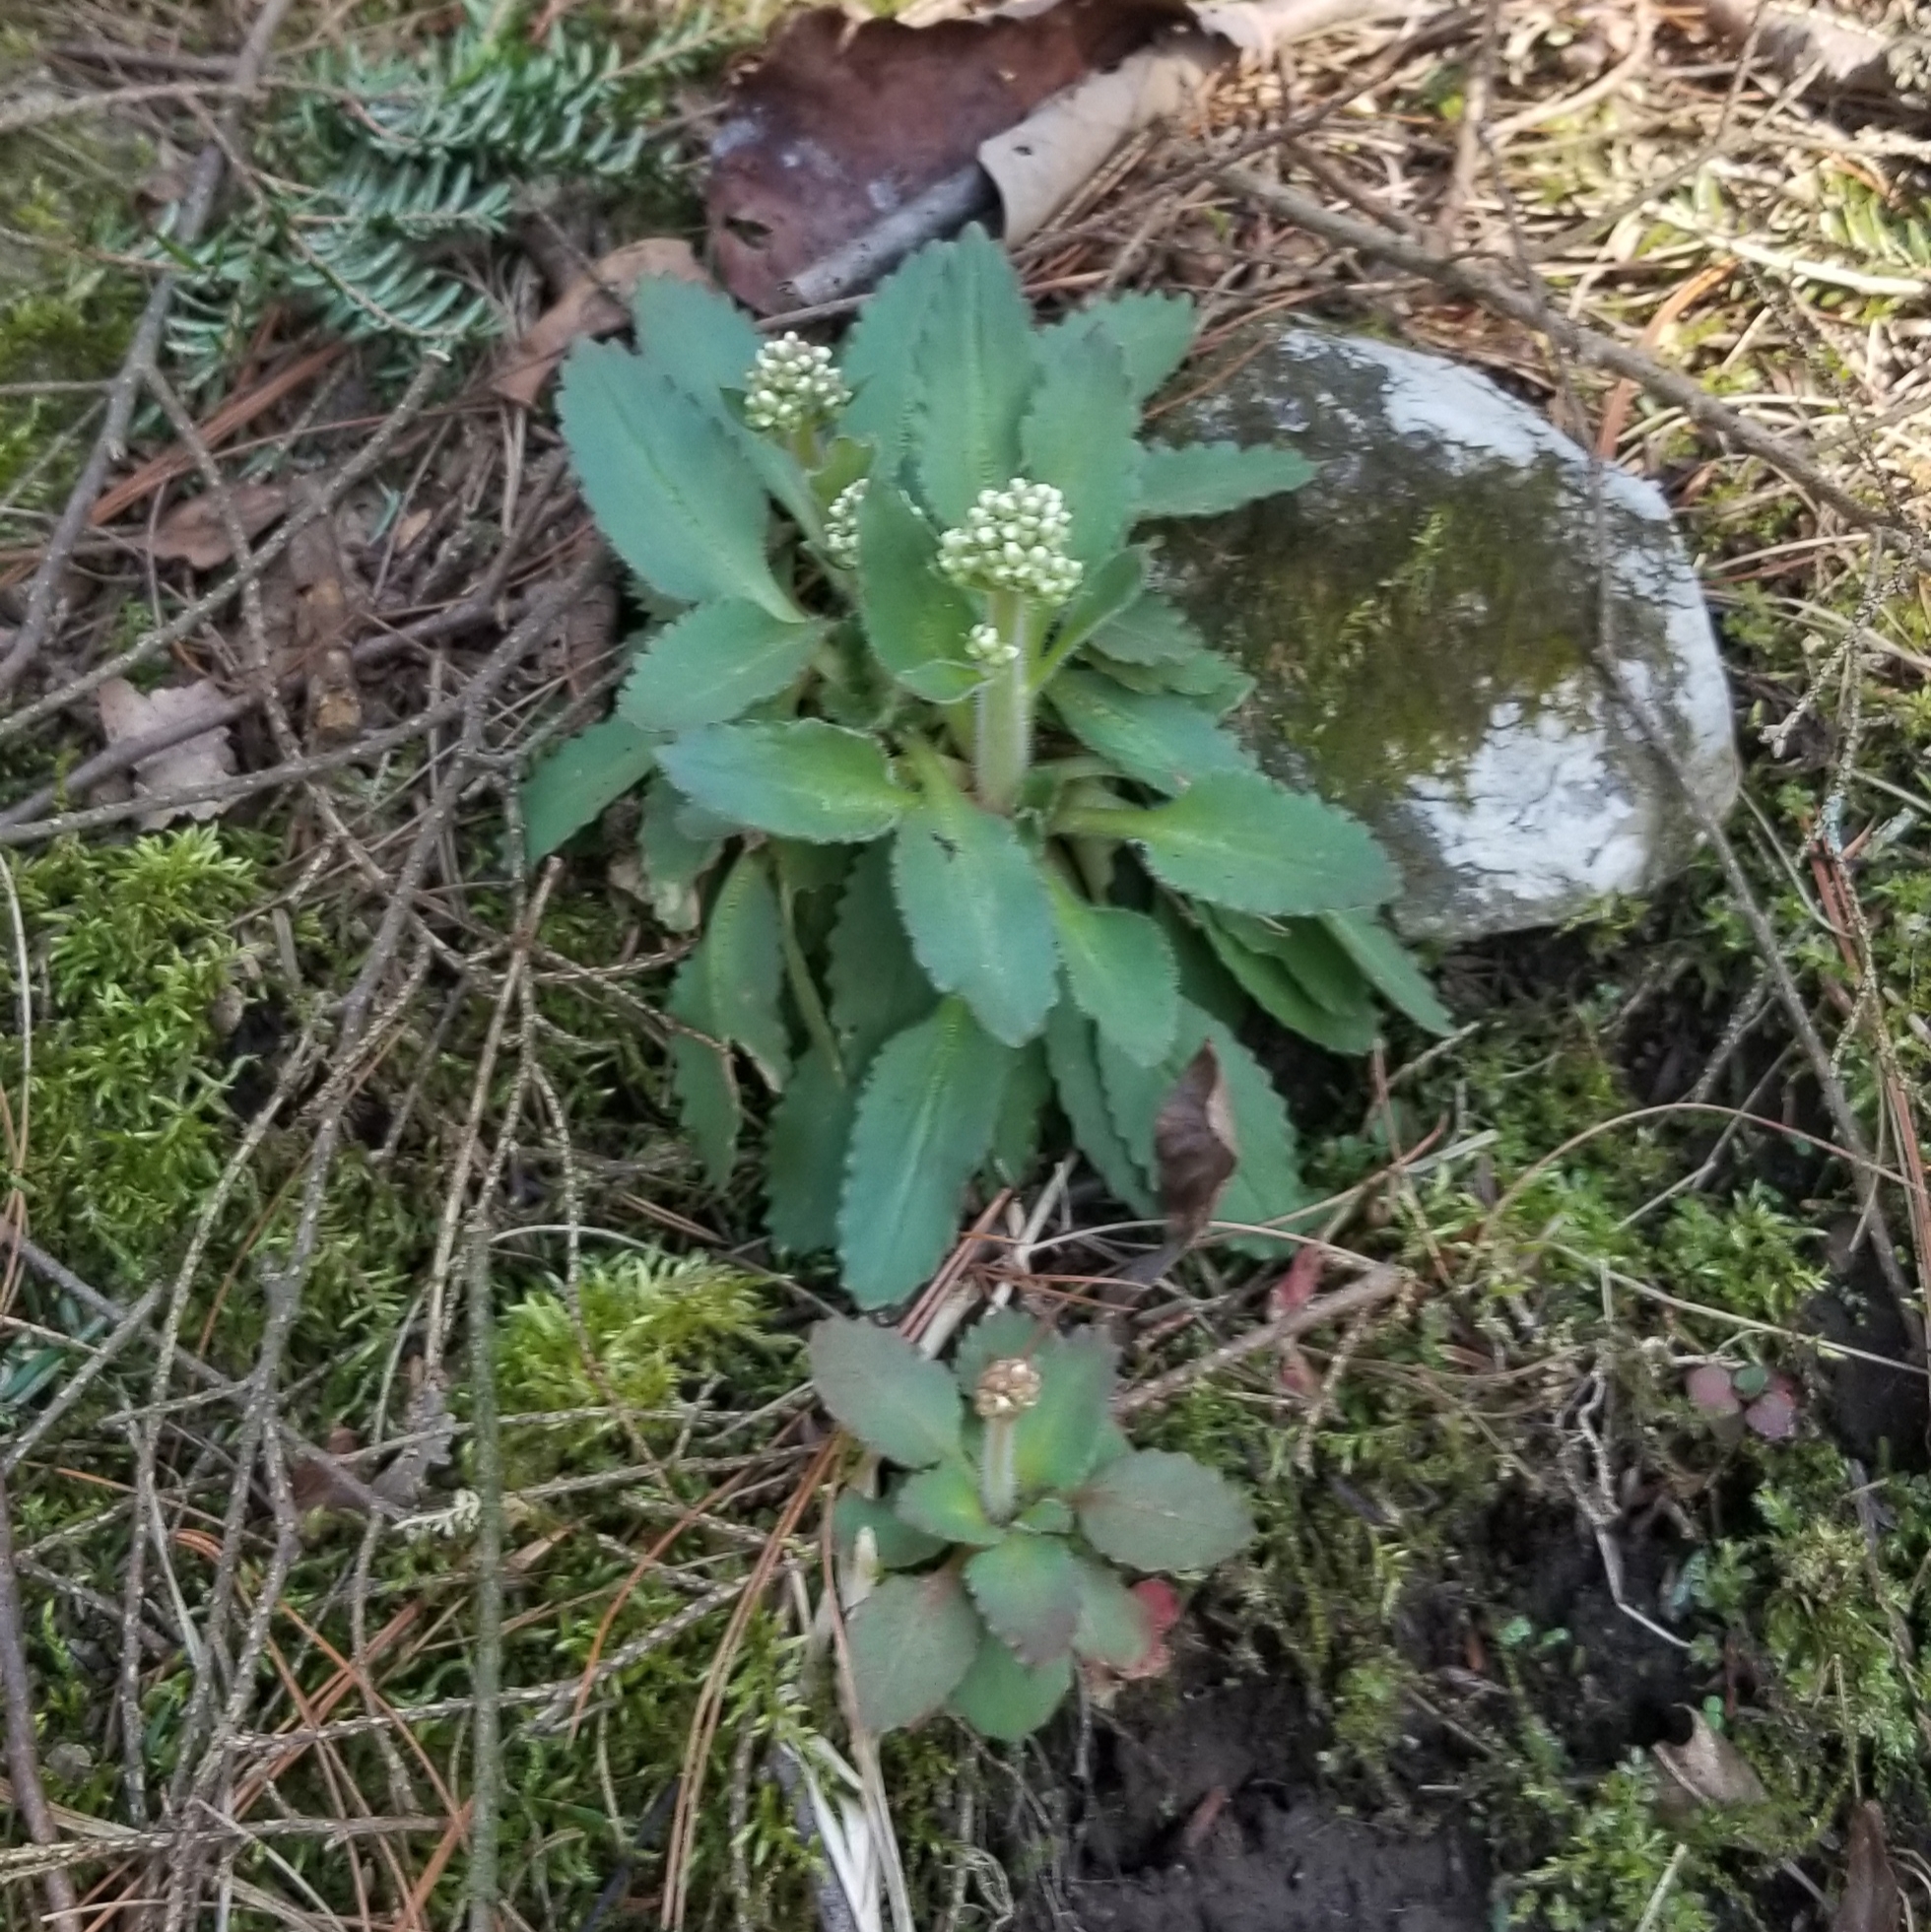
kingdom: Plantae
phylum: Tracheophyta
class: Magnoliopsida
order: Saxifragales
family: Saxifragaceae
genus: Micranthes
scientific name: Micranthes virginiensis
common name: Early saxifrage
